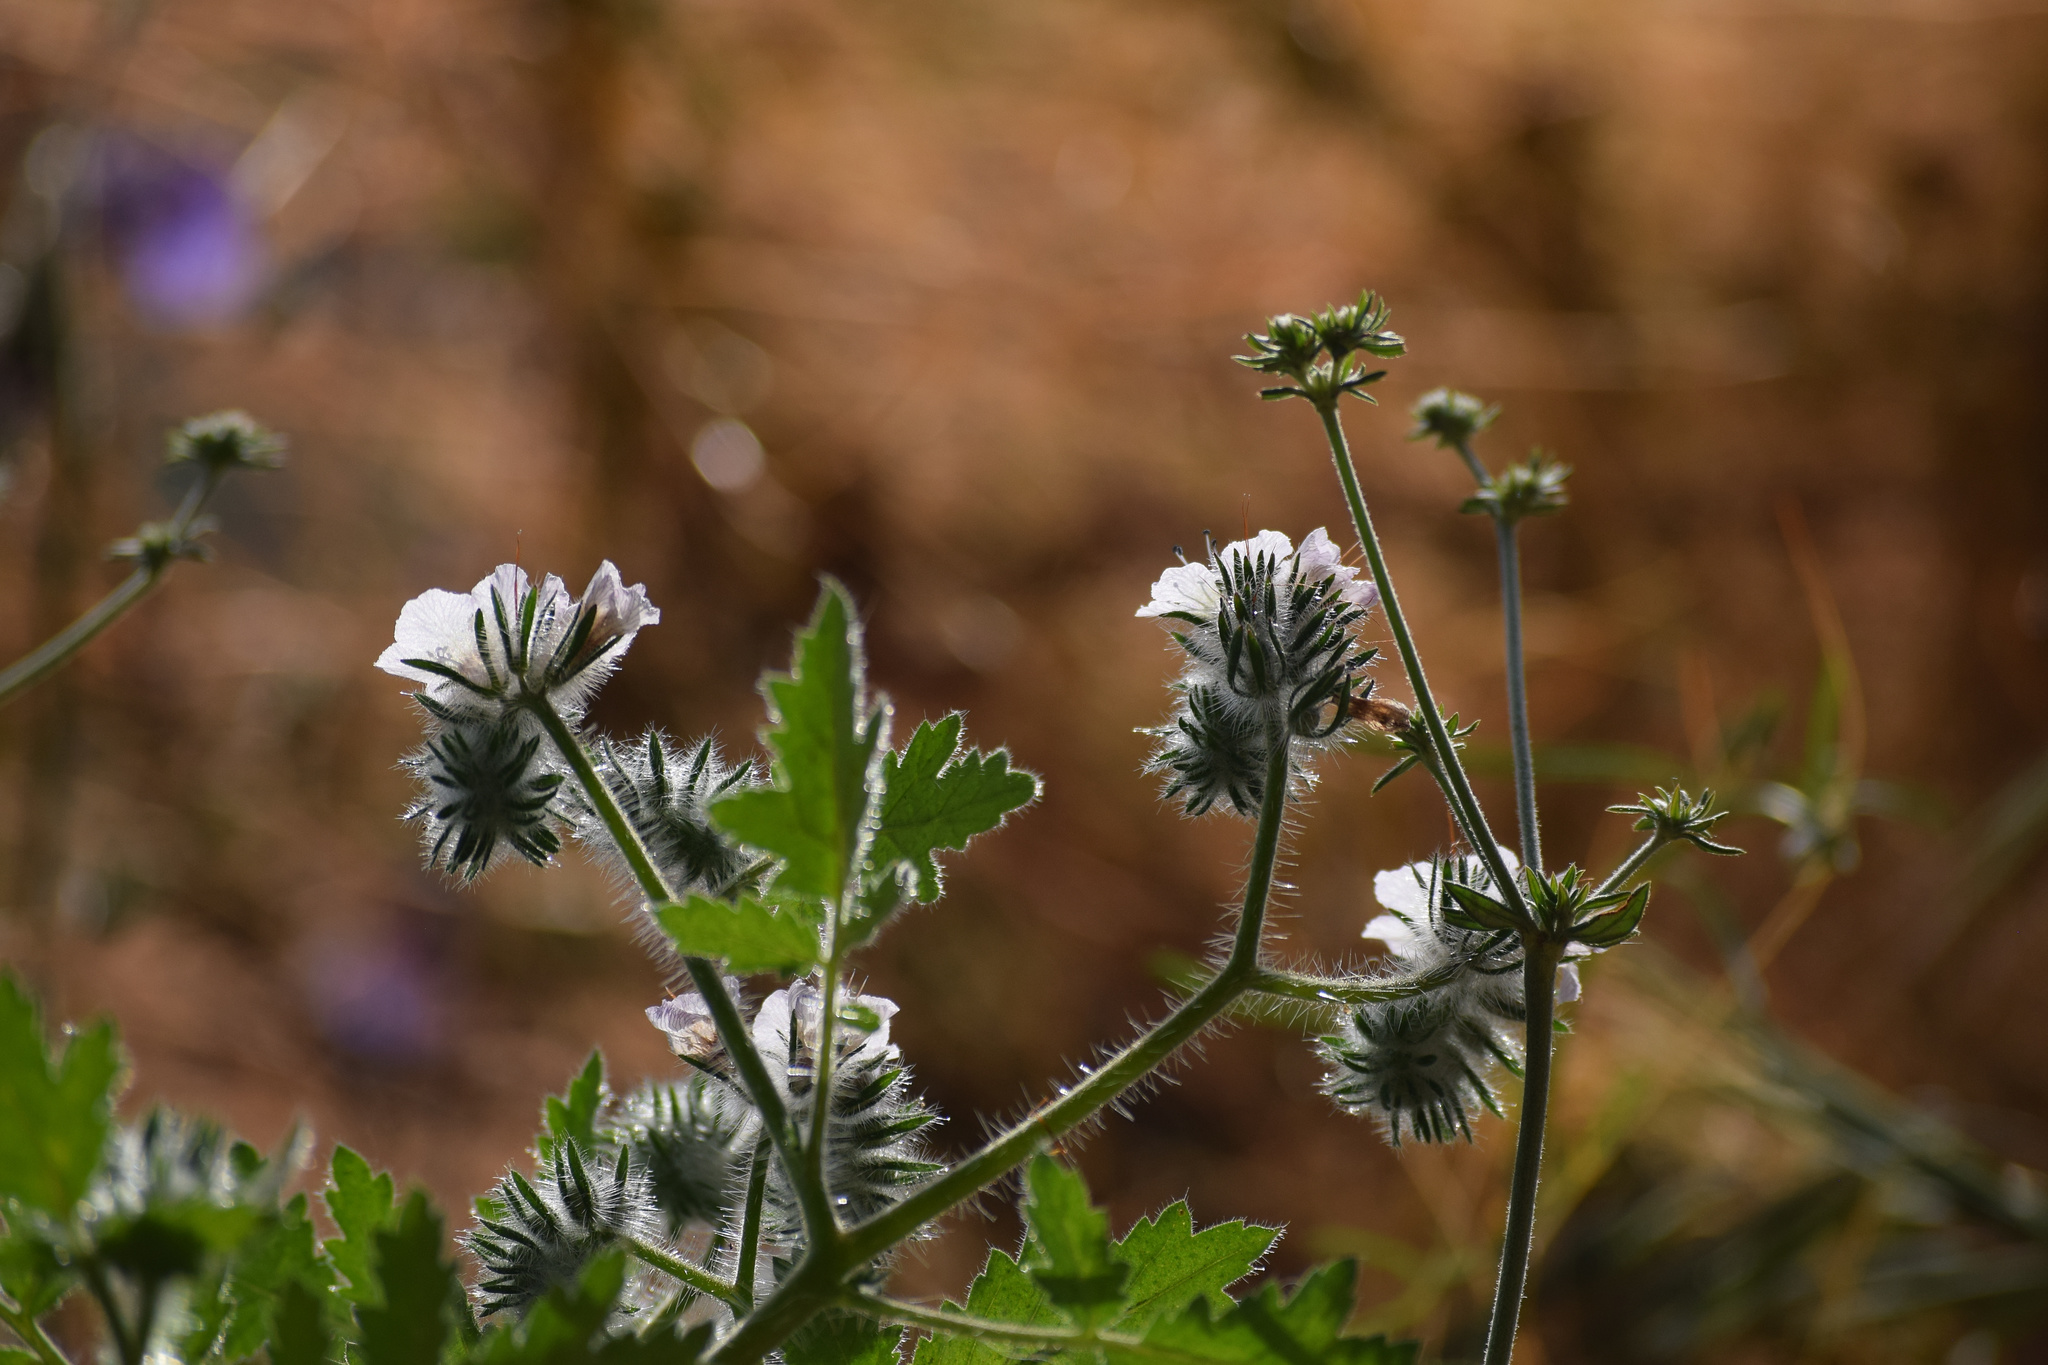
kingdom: Plantae
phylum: Tracheophyta
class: Magnoliopsida
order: Boraginales
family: Hydrophyllaceae
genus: Phacelia
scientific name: Phacelia cicutaria
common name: Caterpillar phacelia
